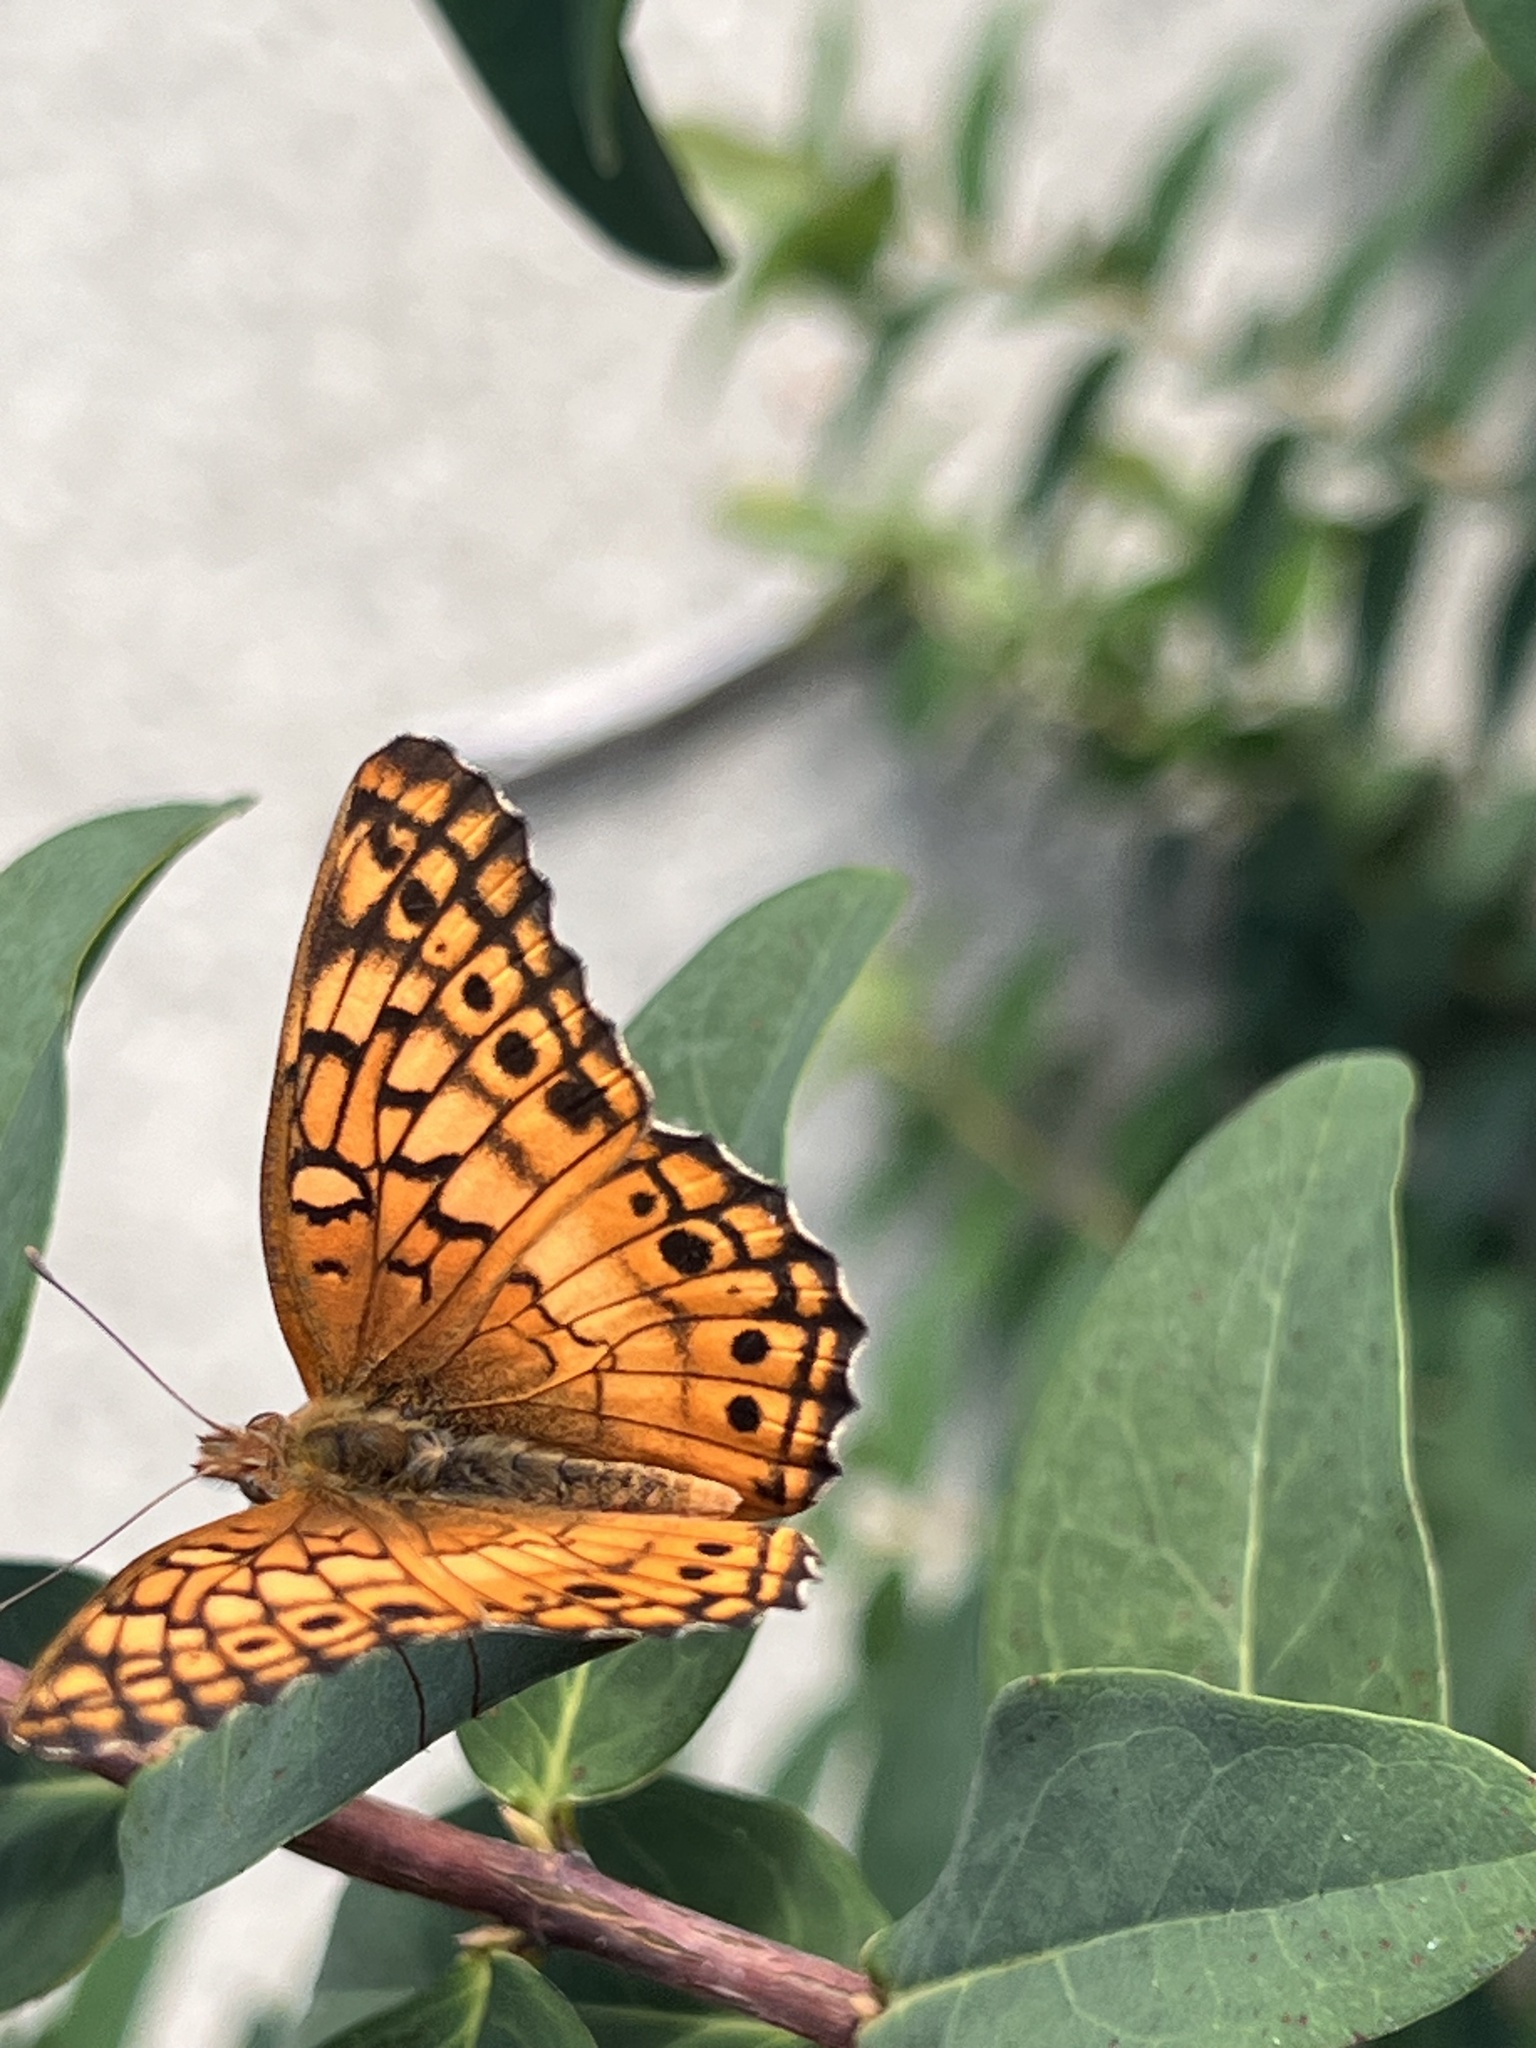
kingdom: Animalia
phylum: Arthropoda
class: Insecta
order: Lepidoptera
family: Nymphalidae
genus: Euptoieta
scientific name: Euptoieta claudia
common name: Variegated fritillary
